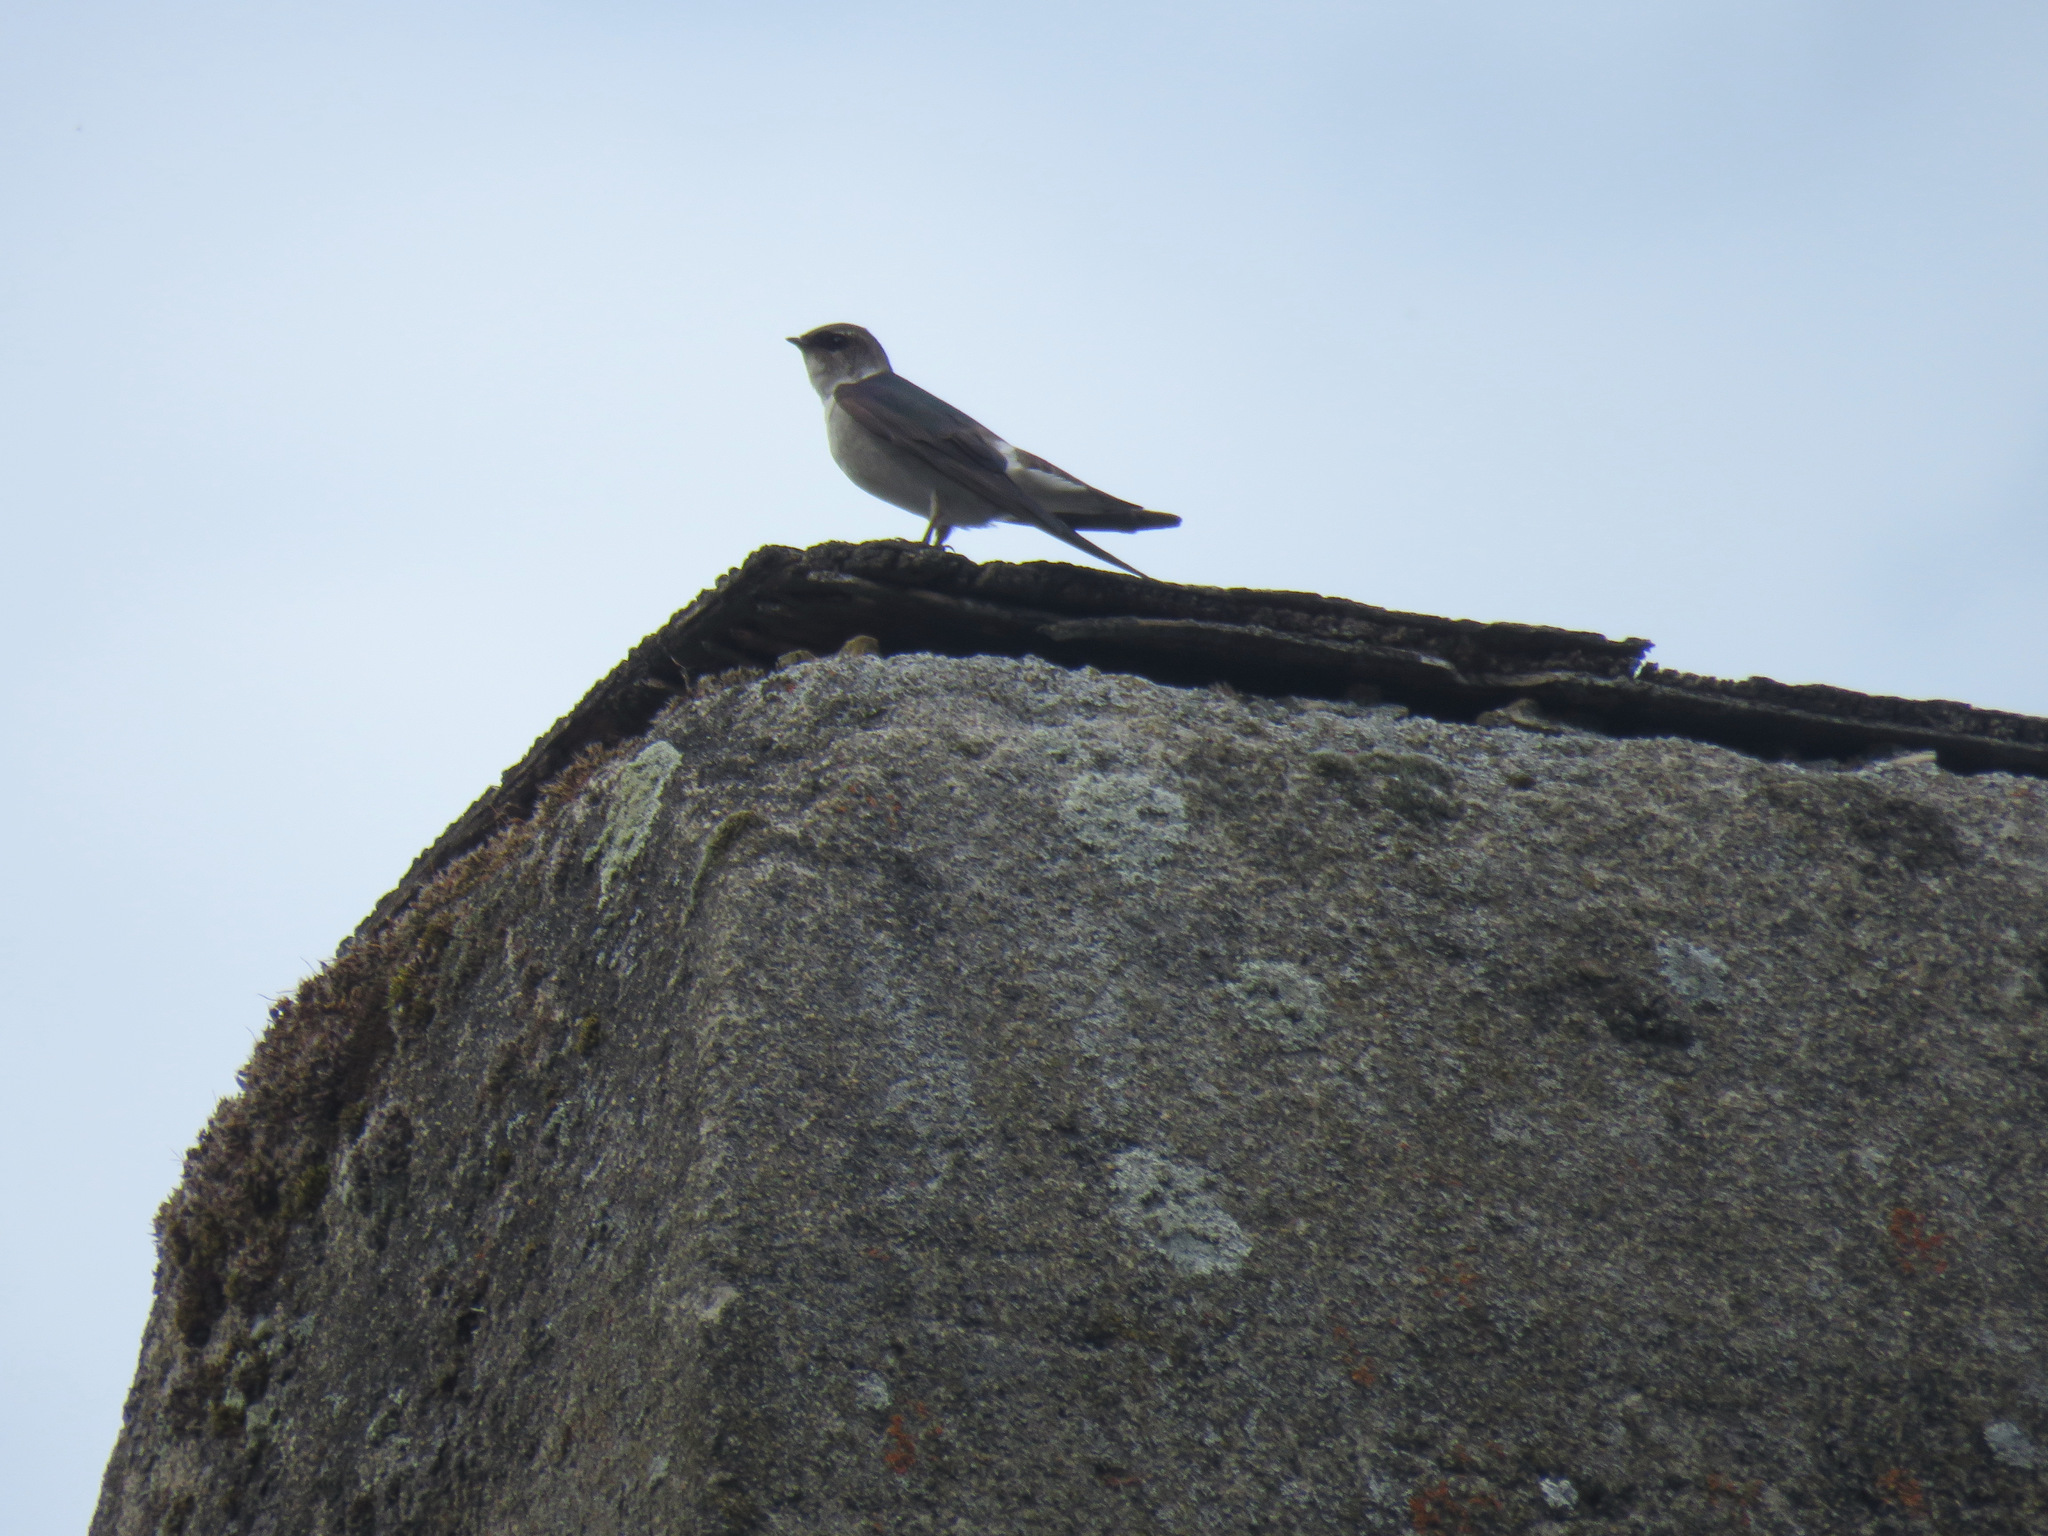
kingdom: Animalia
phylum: Chordata
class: Aves
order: Passeriformes
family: Hirundinidae
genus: Tachycineta
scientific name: Tachycineta thalassina
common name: Violet-green swallow
